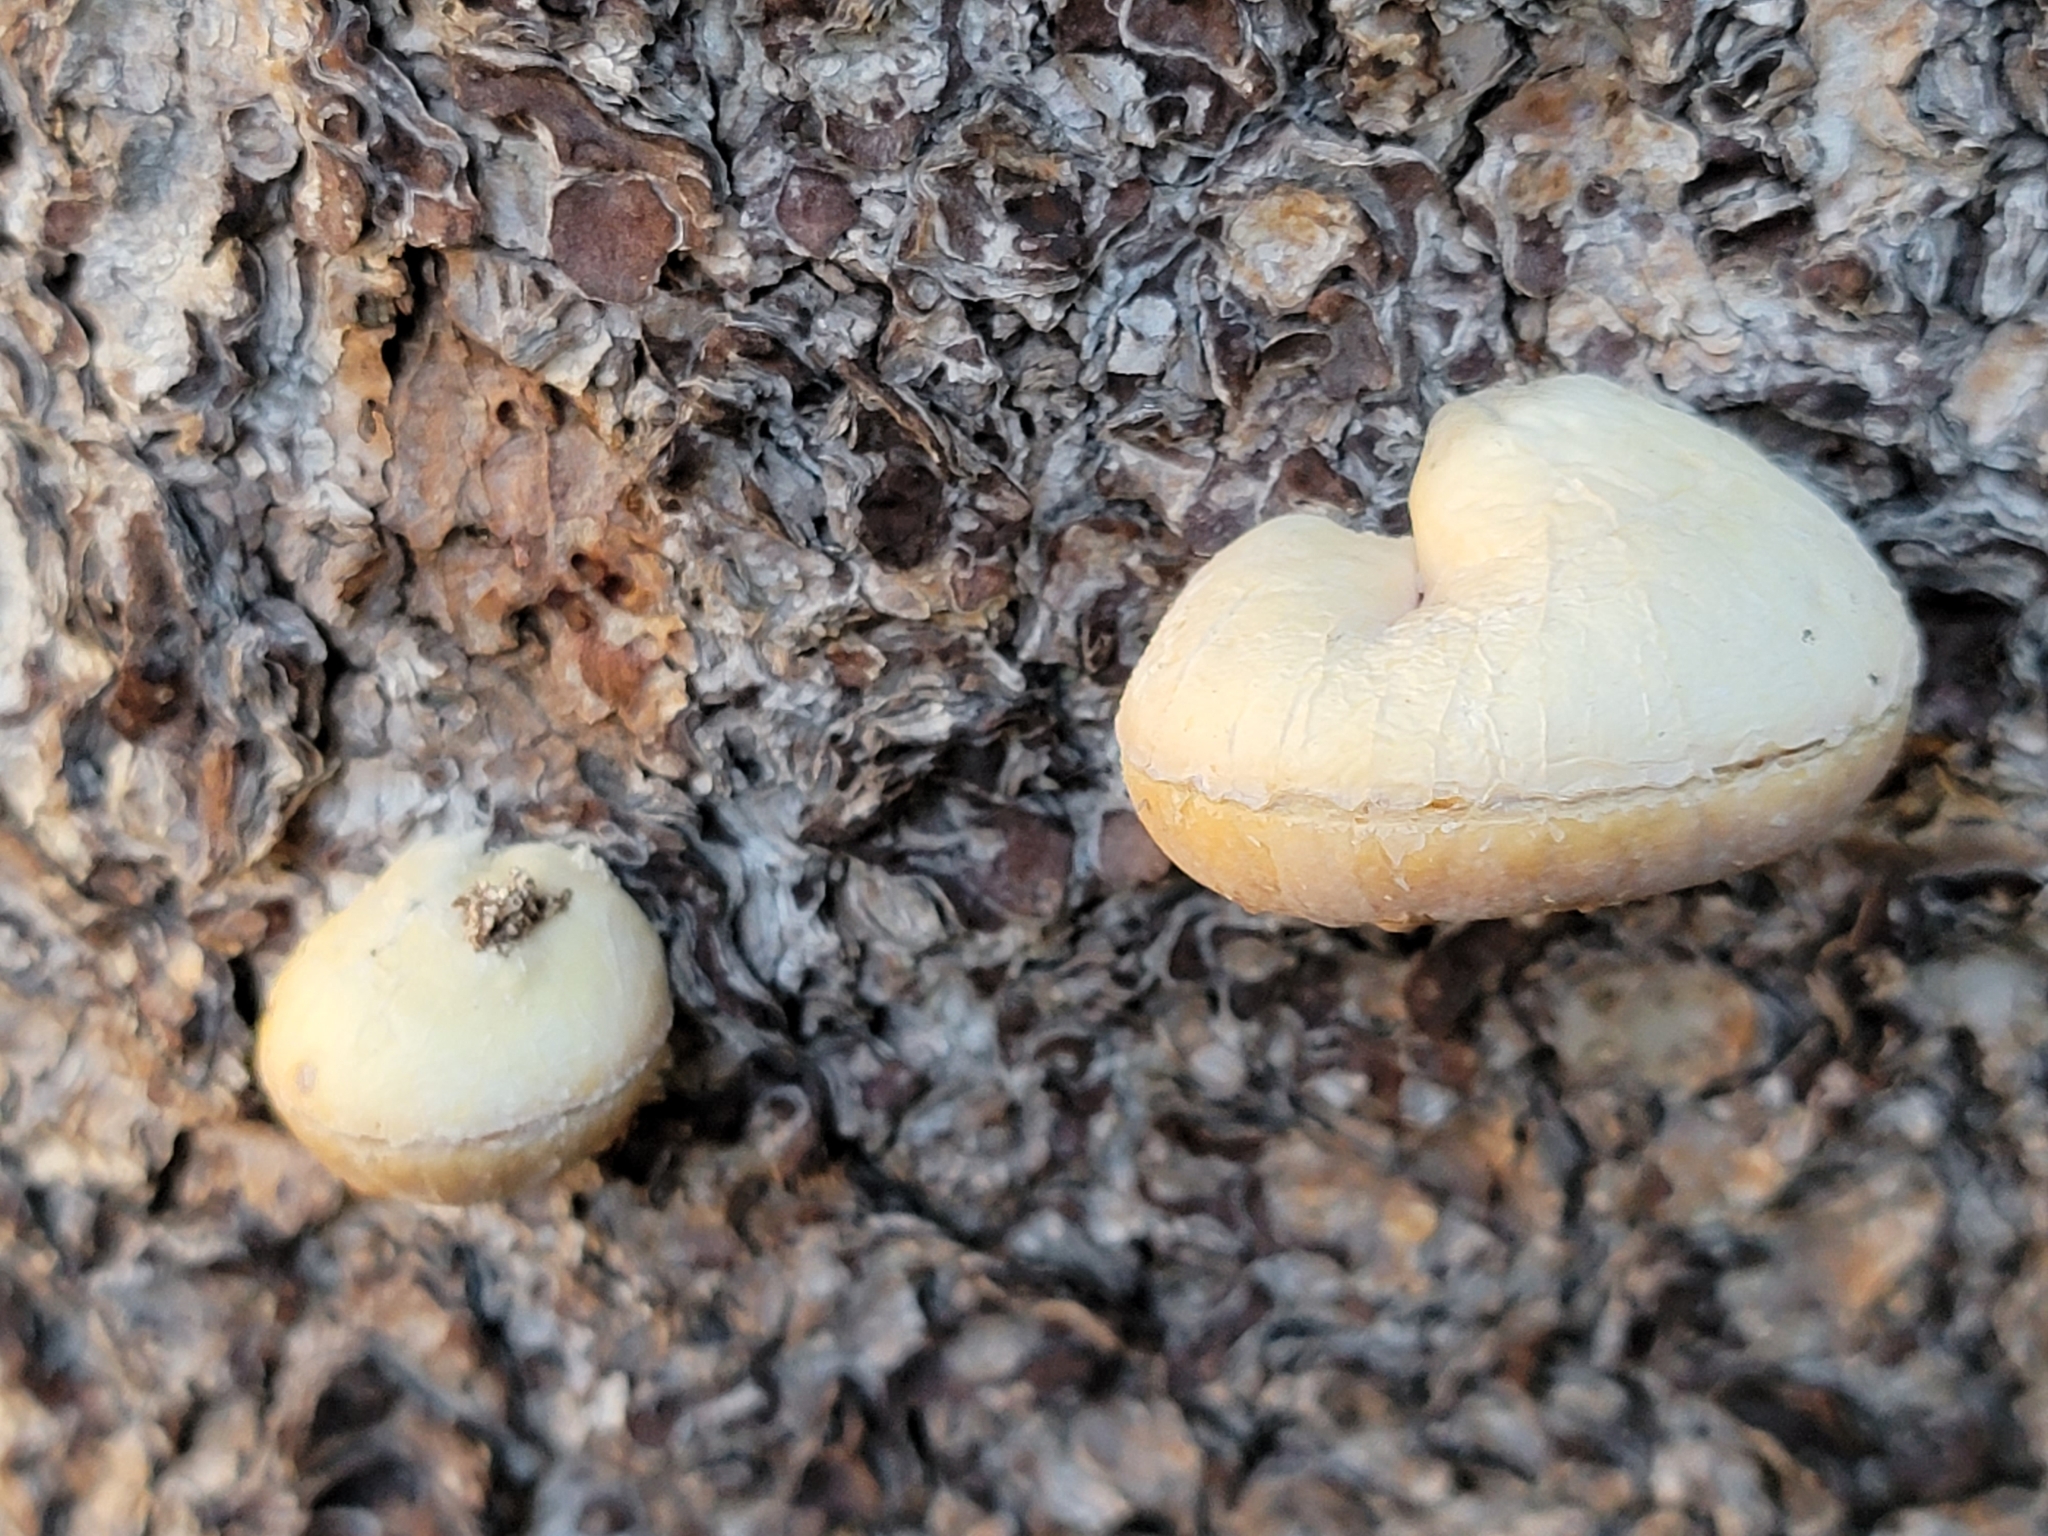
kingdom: Fungi
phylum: Basidiomycota
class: Agaricomycetes
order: Polyporales
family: Polyporaceae
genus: Cryptoporus
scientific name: Cryptoporus volvatus
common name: Veiled polypore
